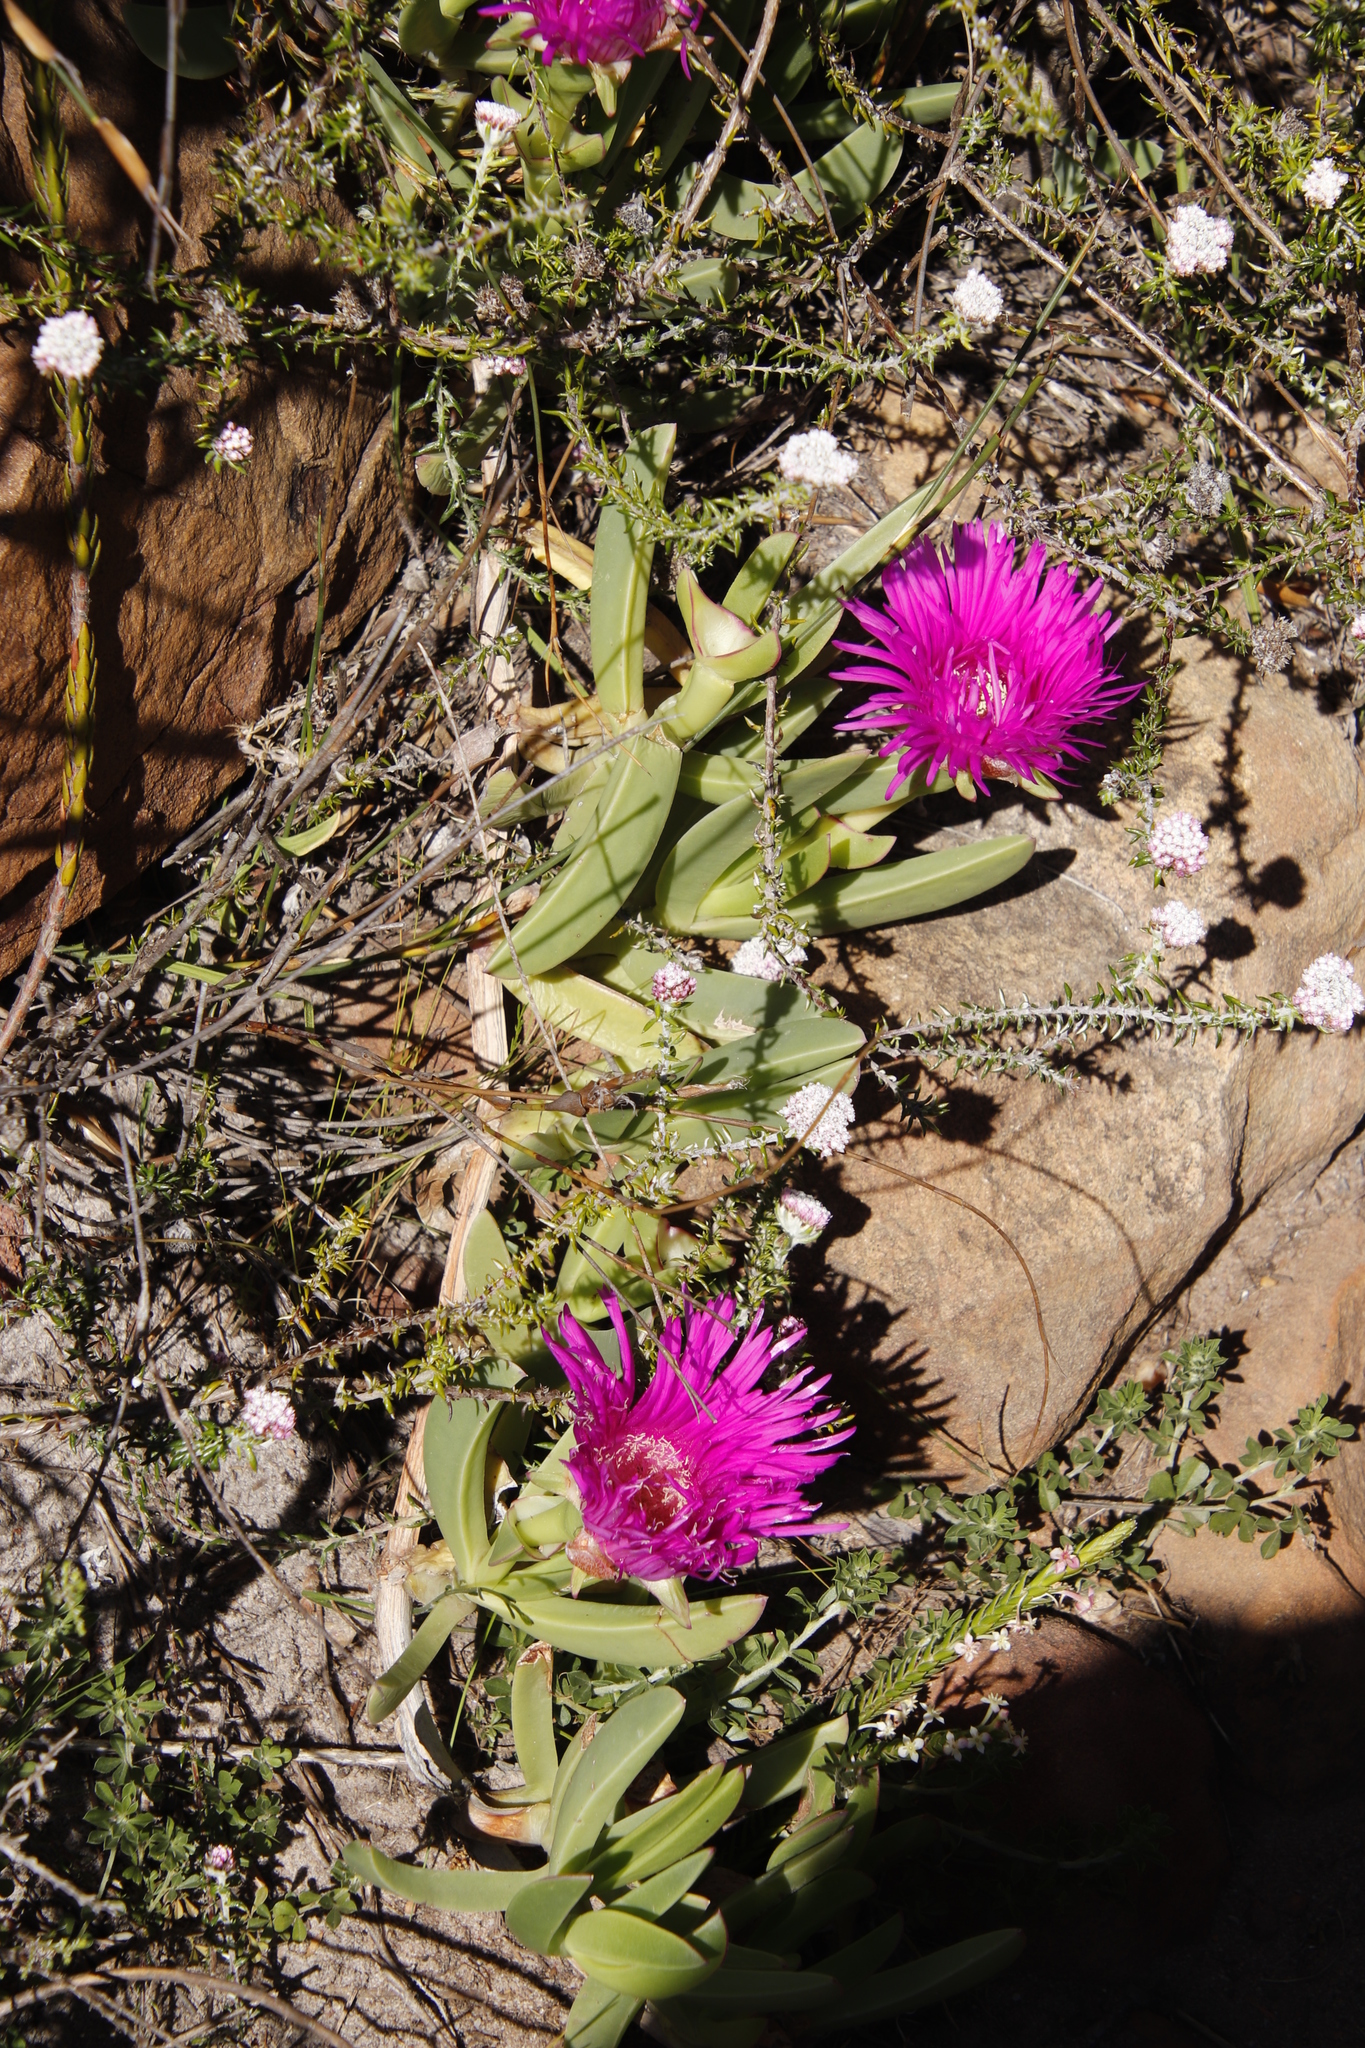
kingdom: Plantae
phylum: Tracheophyta
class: Magnoliopsida
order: Caryophyllales
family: Aizoaceae
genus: Carpobrotus
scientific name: Carpobrotus acinaciformis
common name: Sally-my-handsome
